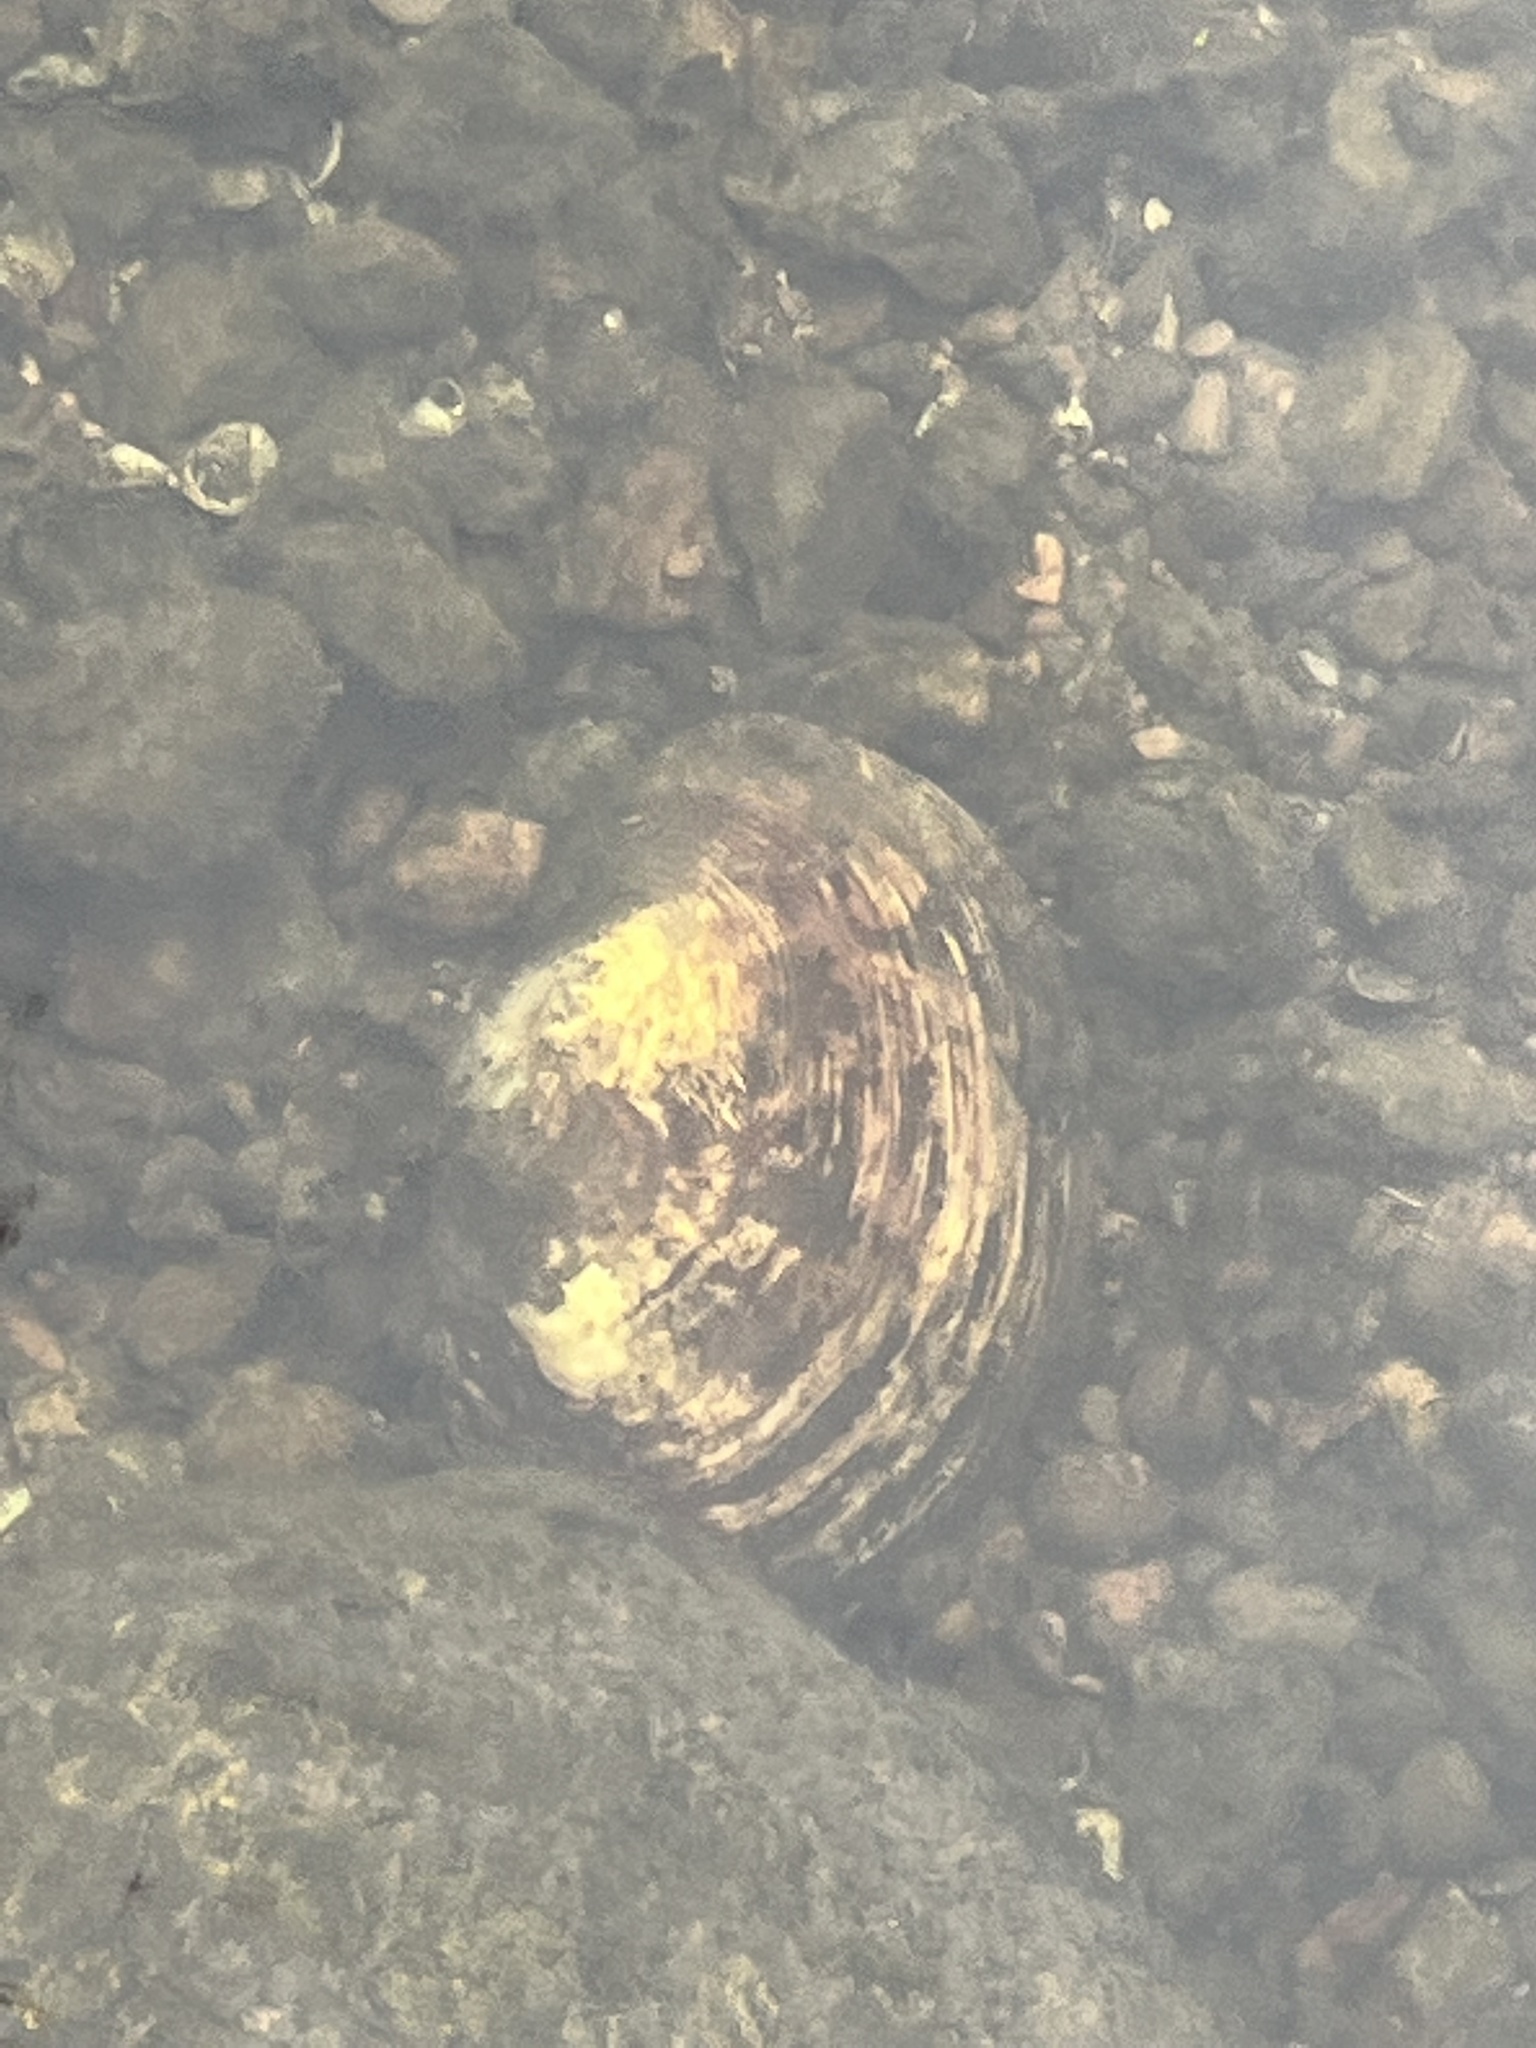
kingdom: Animalia
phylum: Mollusca
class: Bivalvia
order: Unionida
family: Unionidae
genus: Lampsilis
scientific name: Lampsilis cardium
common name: Plain pocketbook
